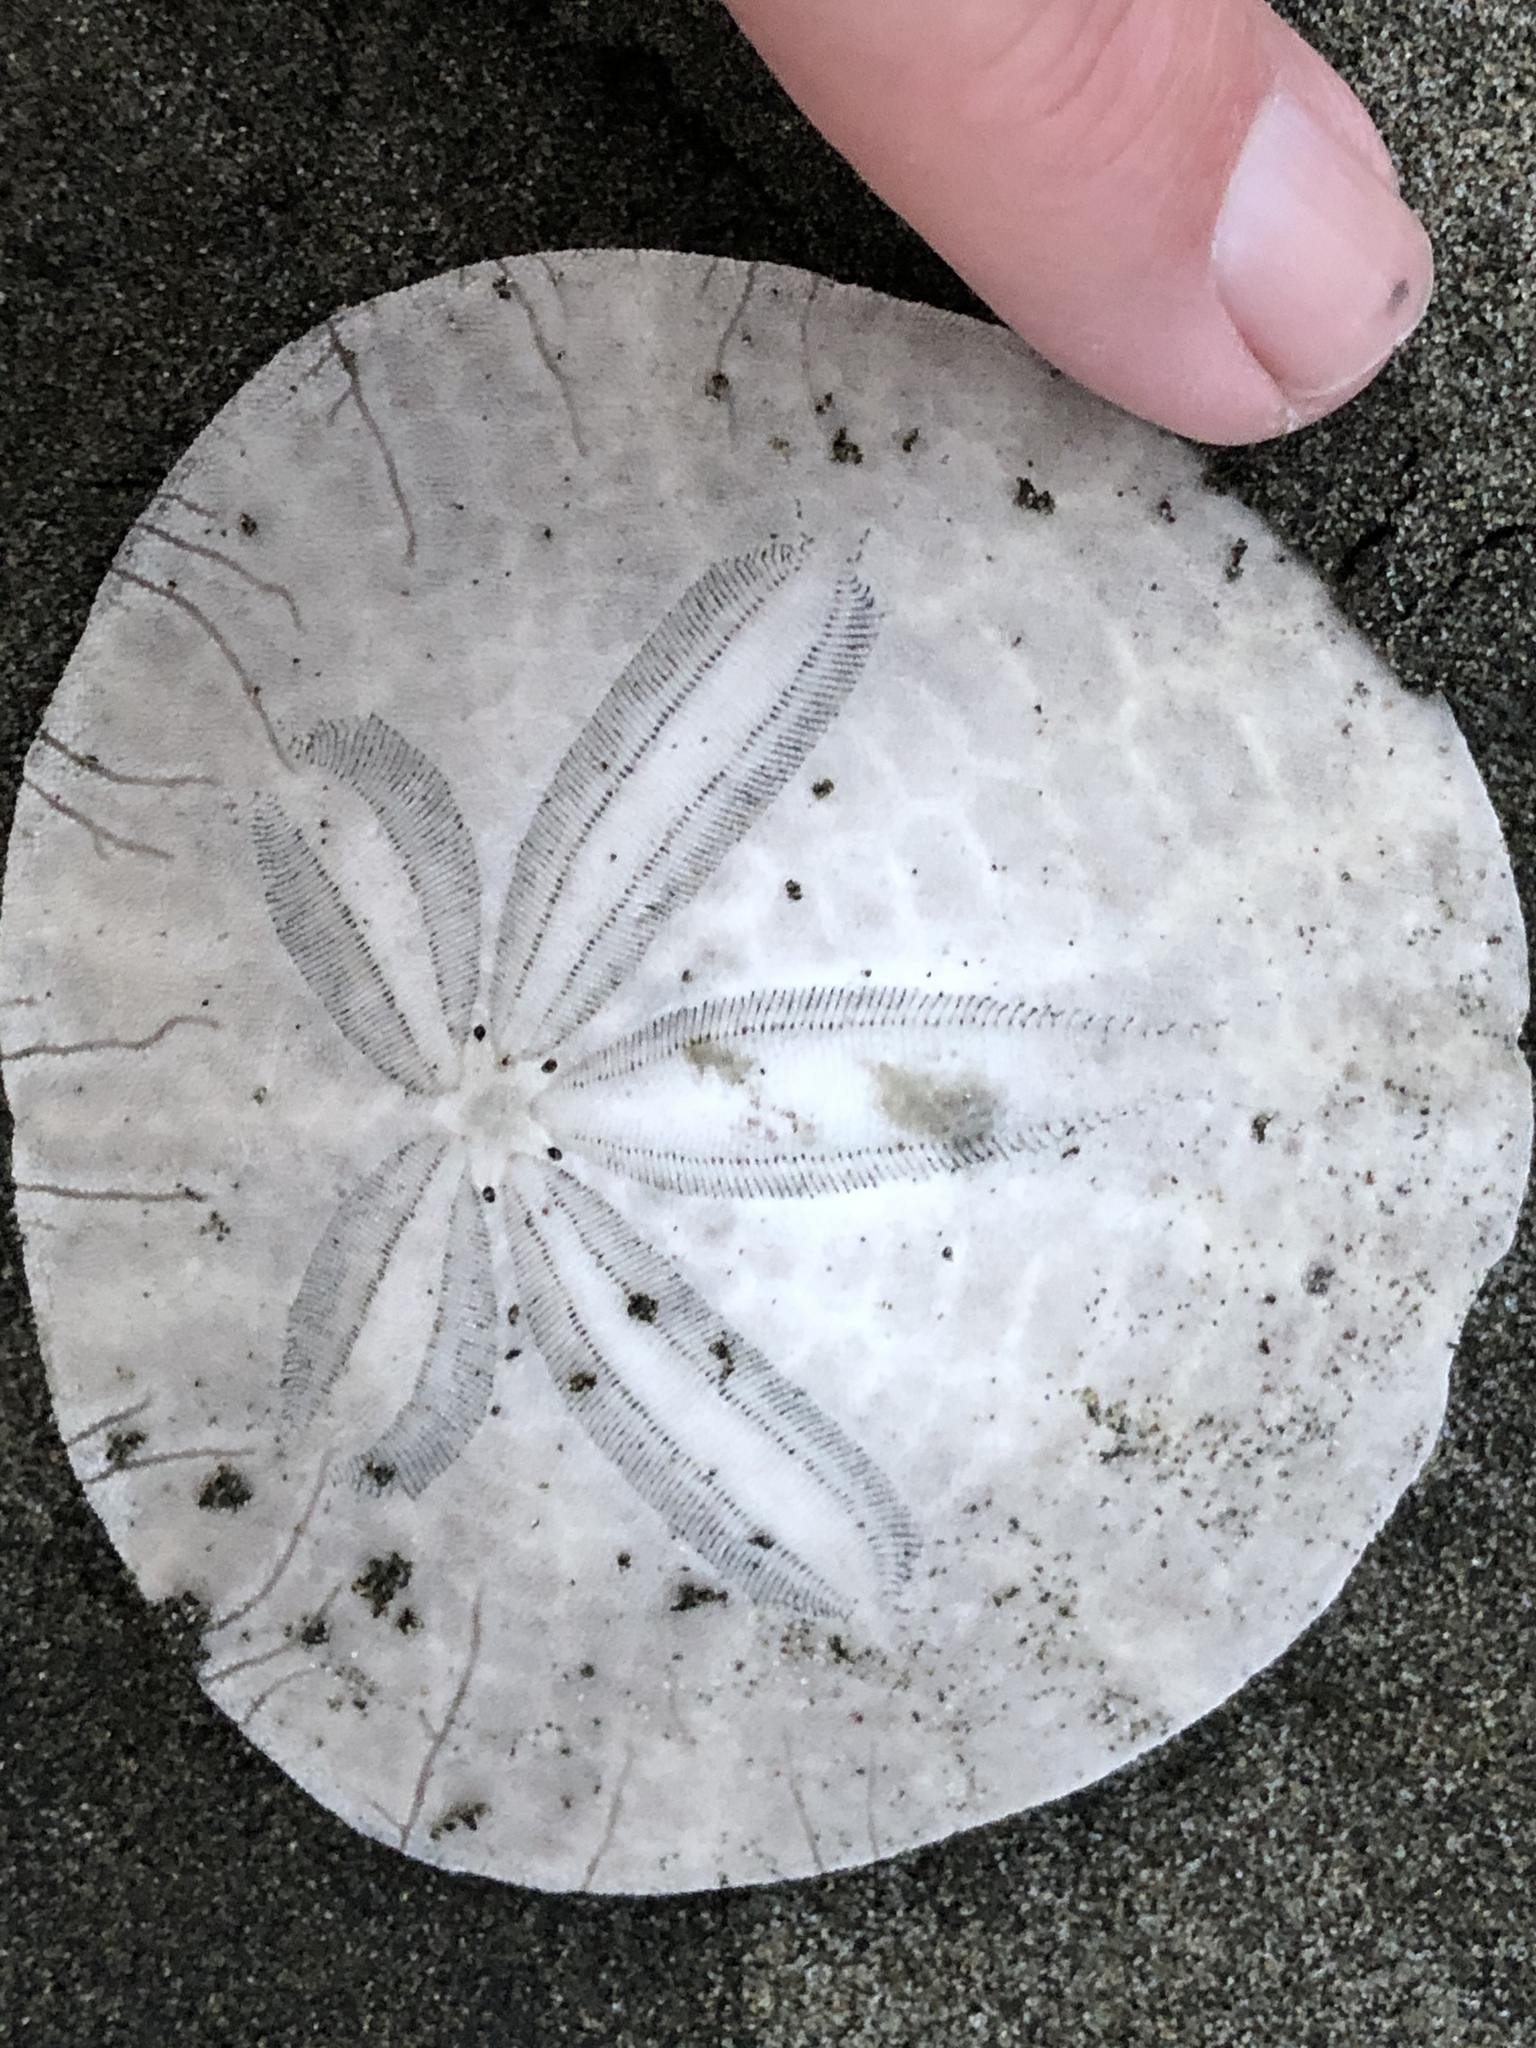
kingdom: Animalia
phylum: Echinodermata
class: Echinoidea
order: Echinolampadacea
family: Dendrasteridae
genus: Dendraster
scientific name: Dendraster excentricus
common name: Eccentric sand dollar sea urchin
